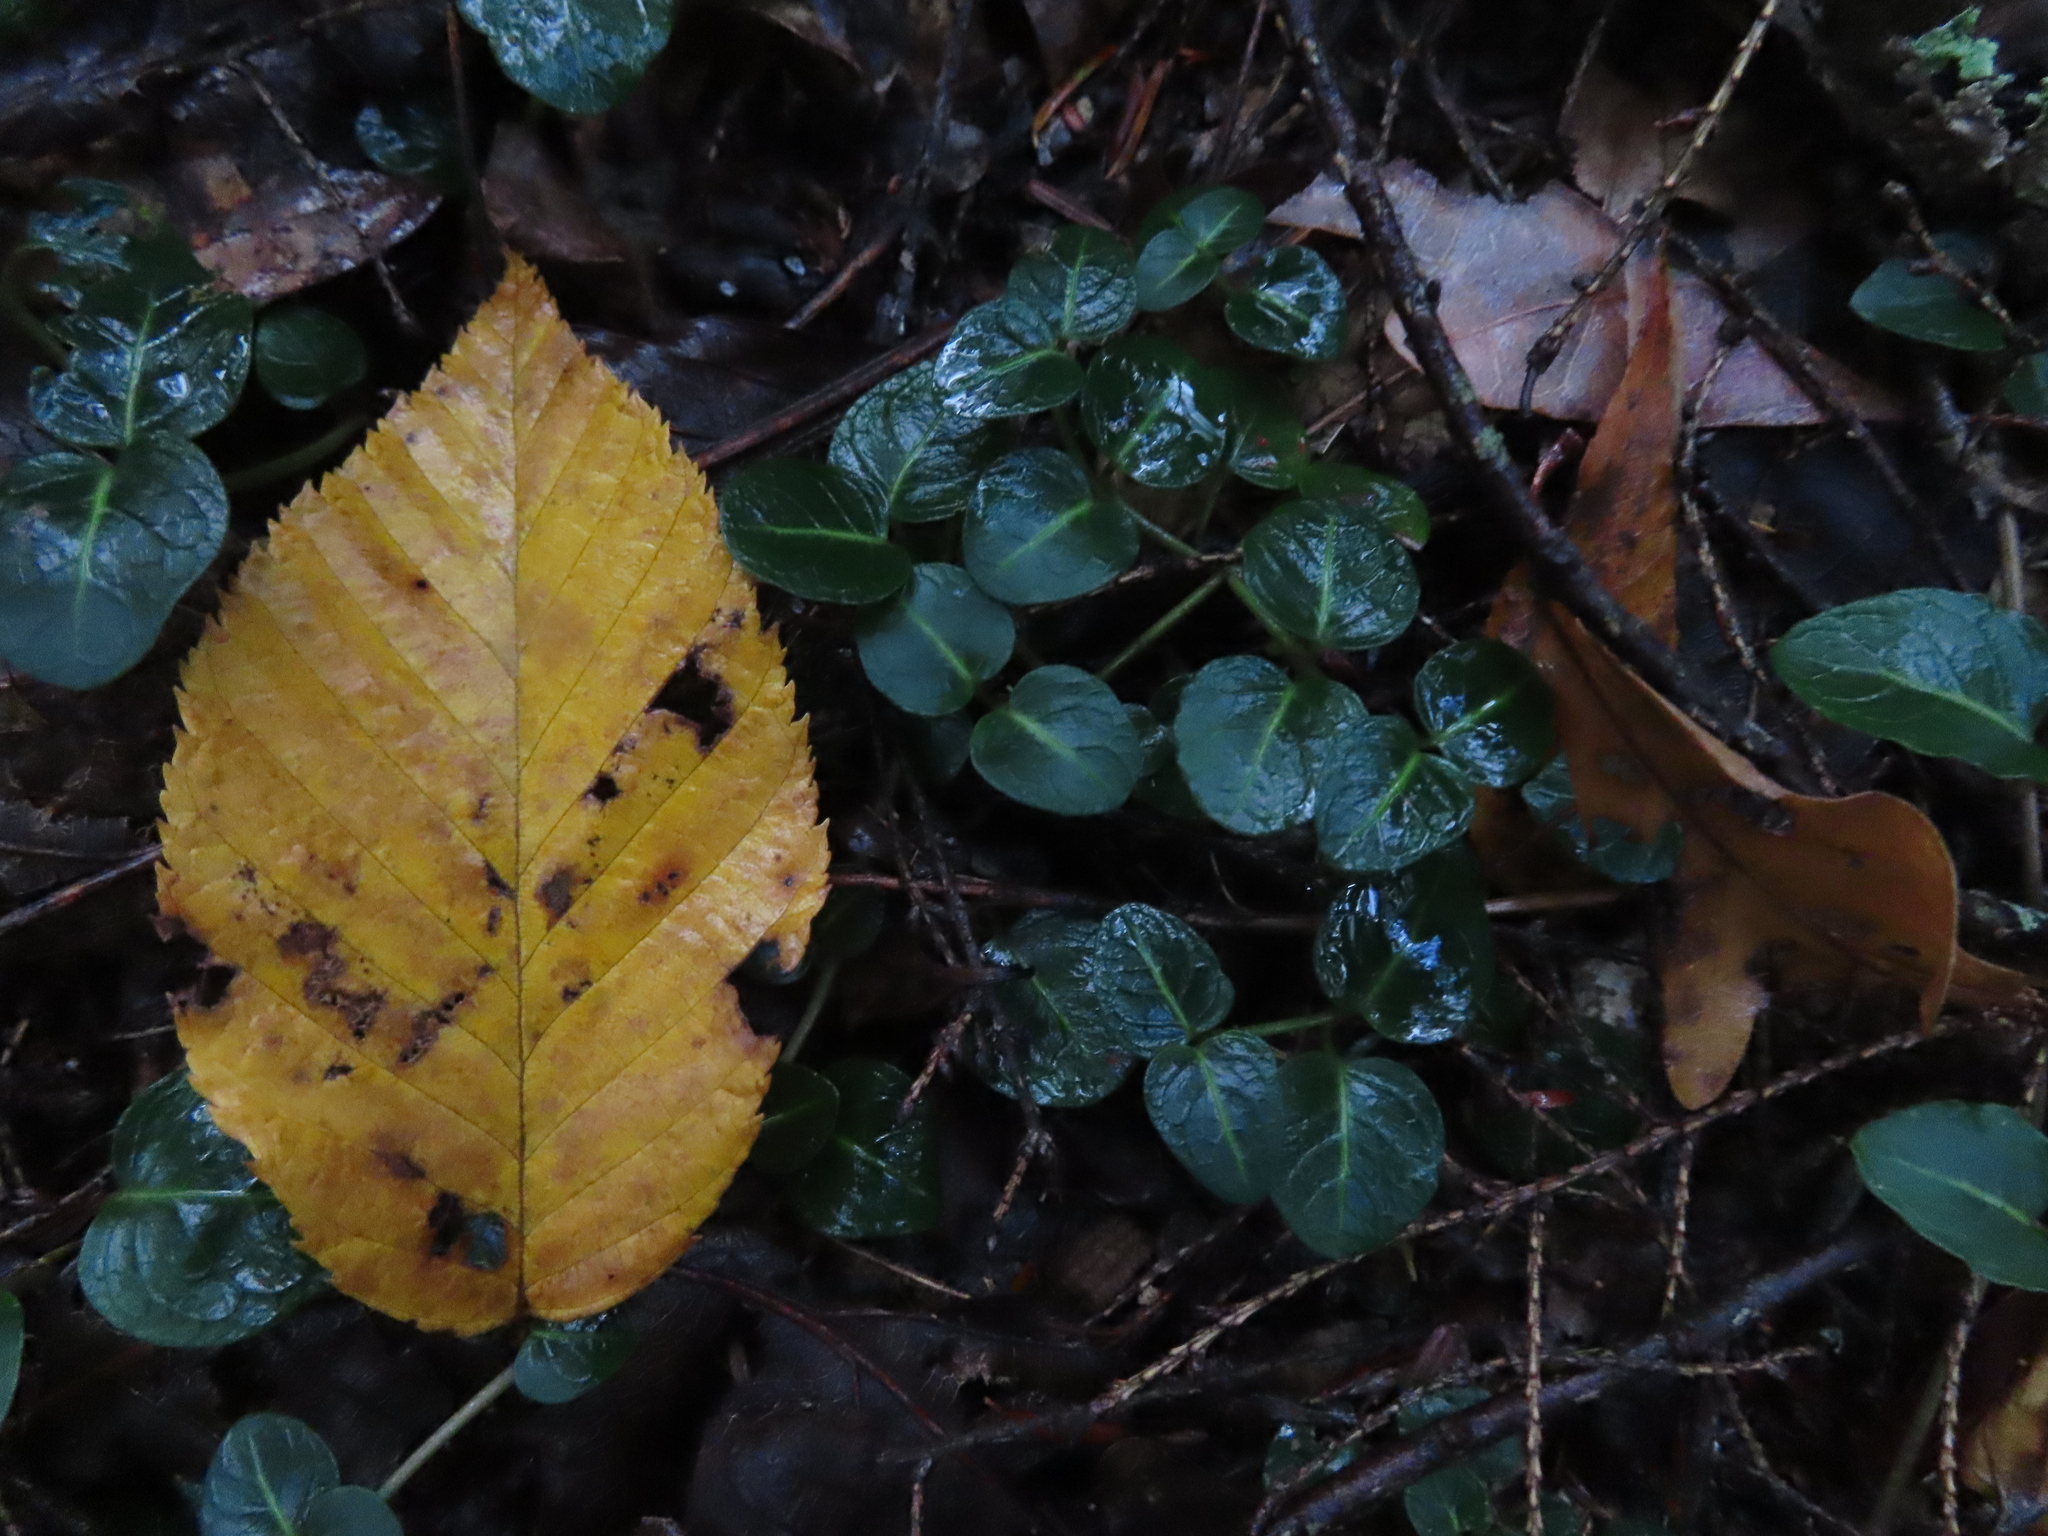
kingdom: Plantae
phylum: Tracheophyta
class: Magnoliopsida
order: Gentianales
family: Rubiaceae
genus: Mitchella
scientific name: Mitchella repens
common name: Partridge-berry
